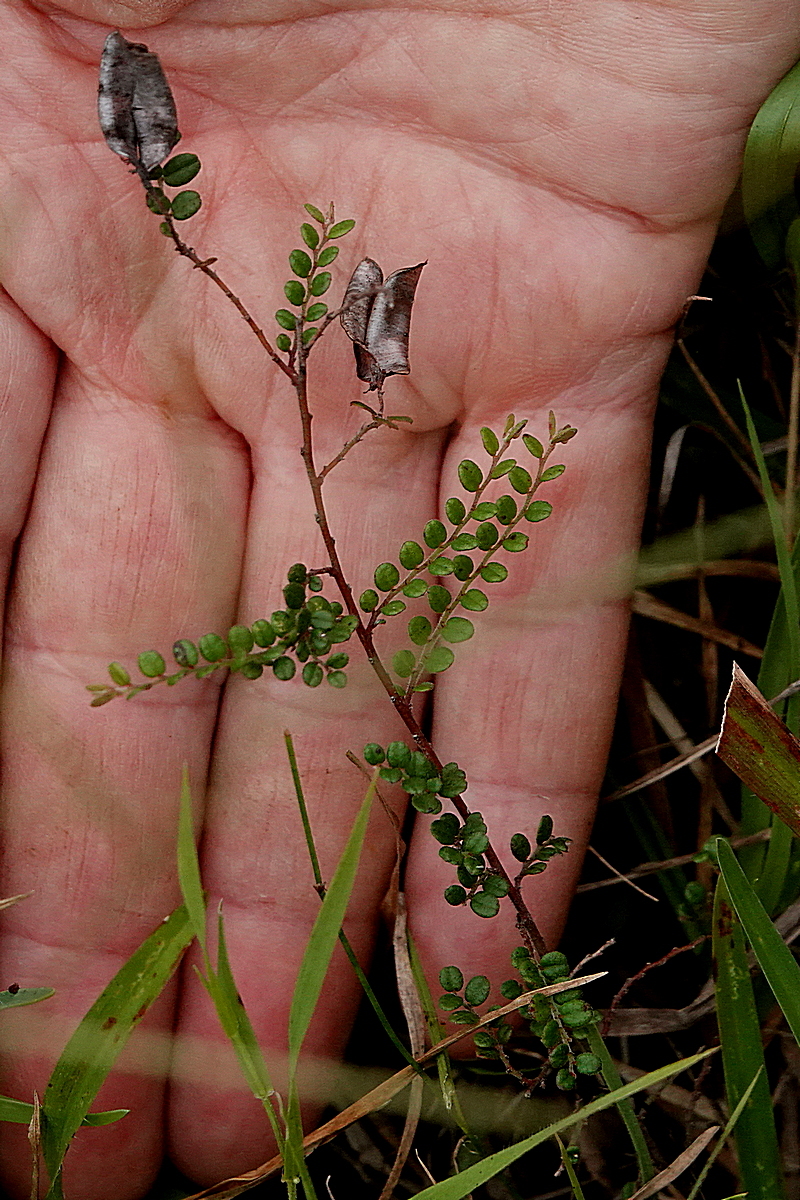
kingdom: Plantae
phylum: Tracheophyta
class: Magnoliopsida
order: Fabales
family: Fabaceae
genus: Bossiaea
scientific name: Bossiaea buxifolia
